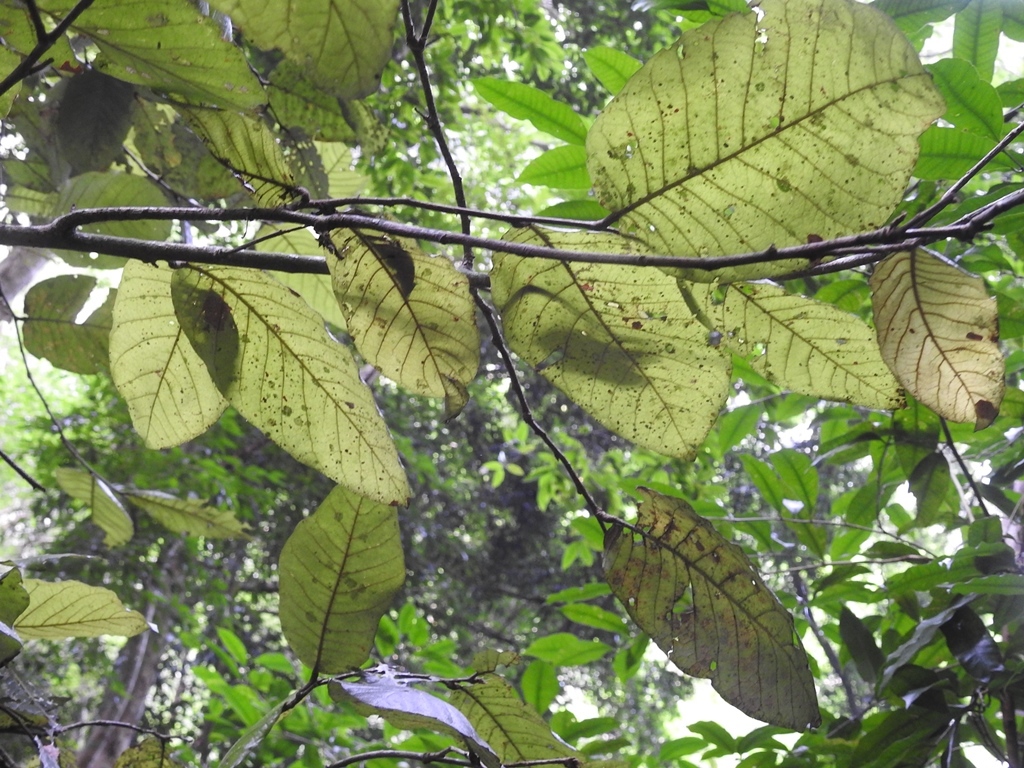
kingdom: Plantae
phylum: Tracheophyta
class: Magnoliopsida
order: Malpighiales
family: Chrysobalanaceae
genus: Microdesmia
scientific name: Microdesmia arborea
